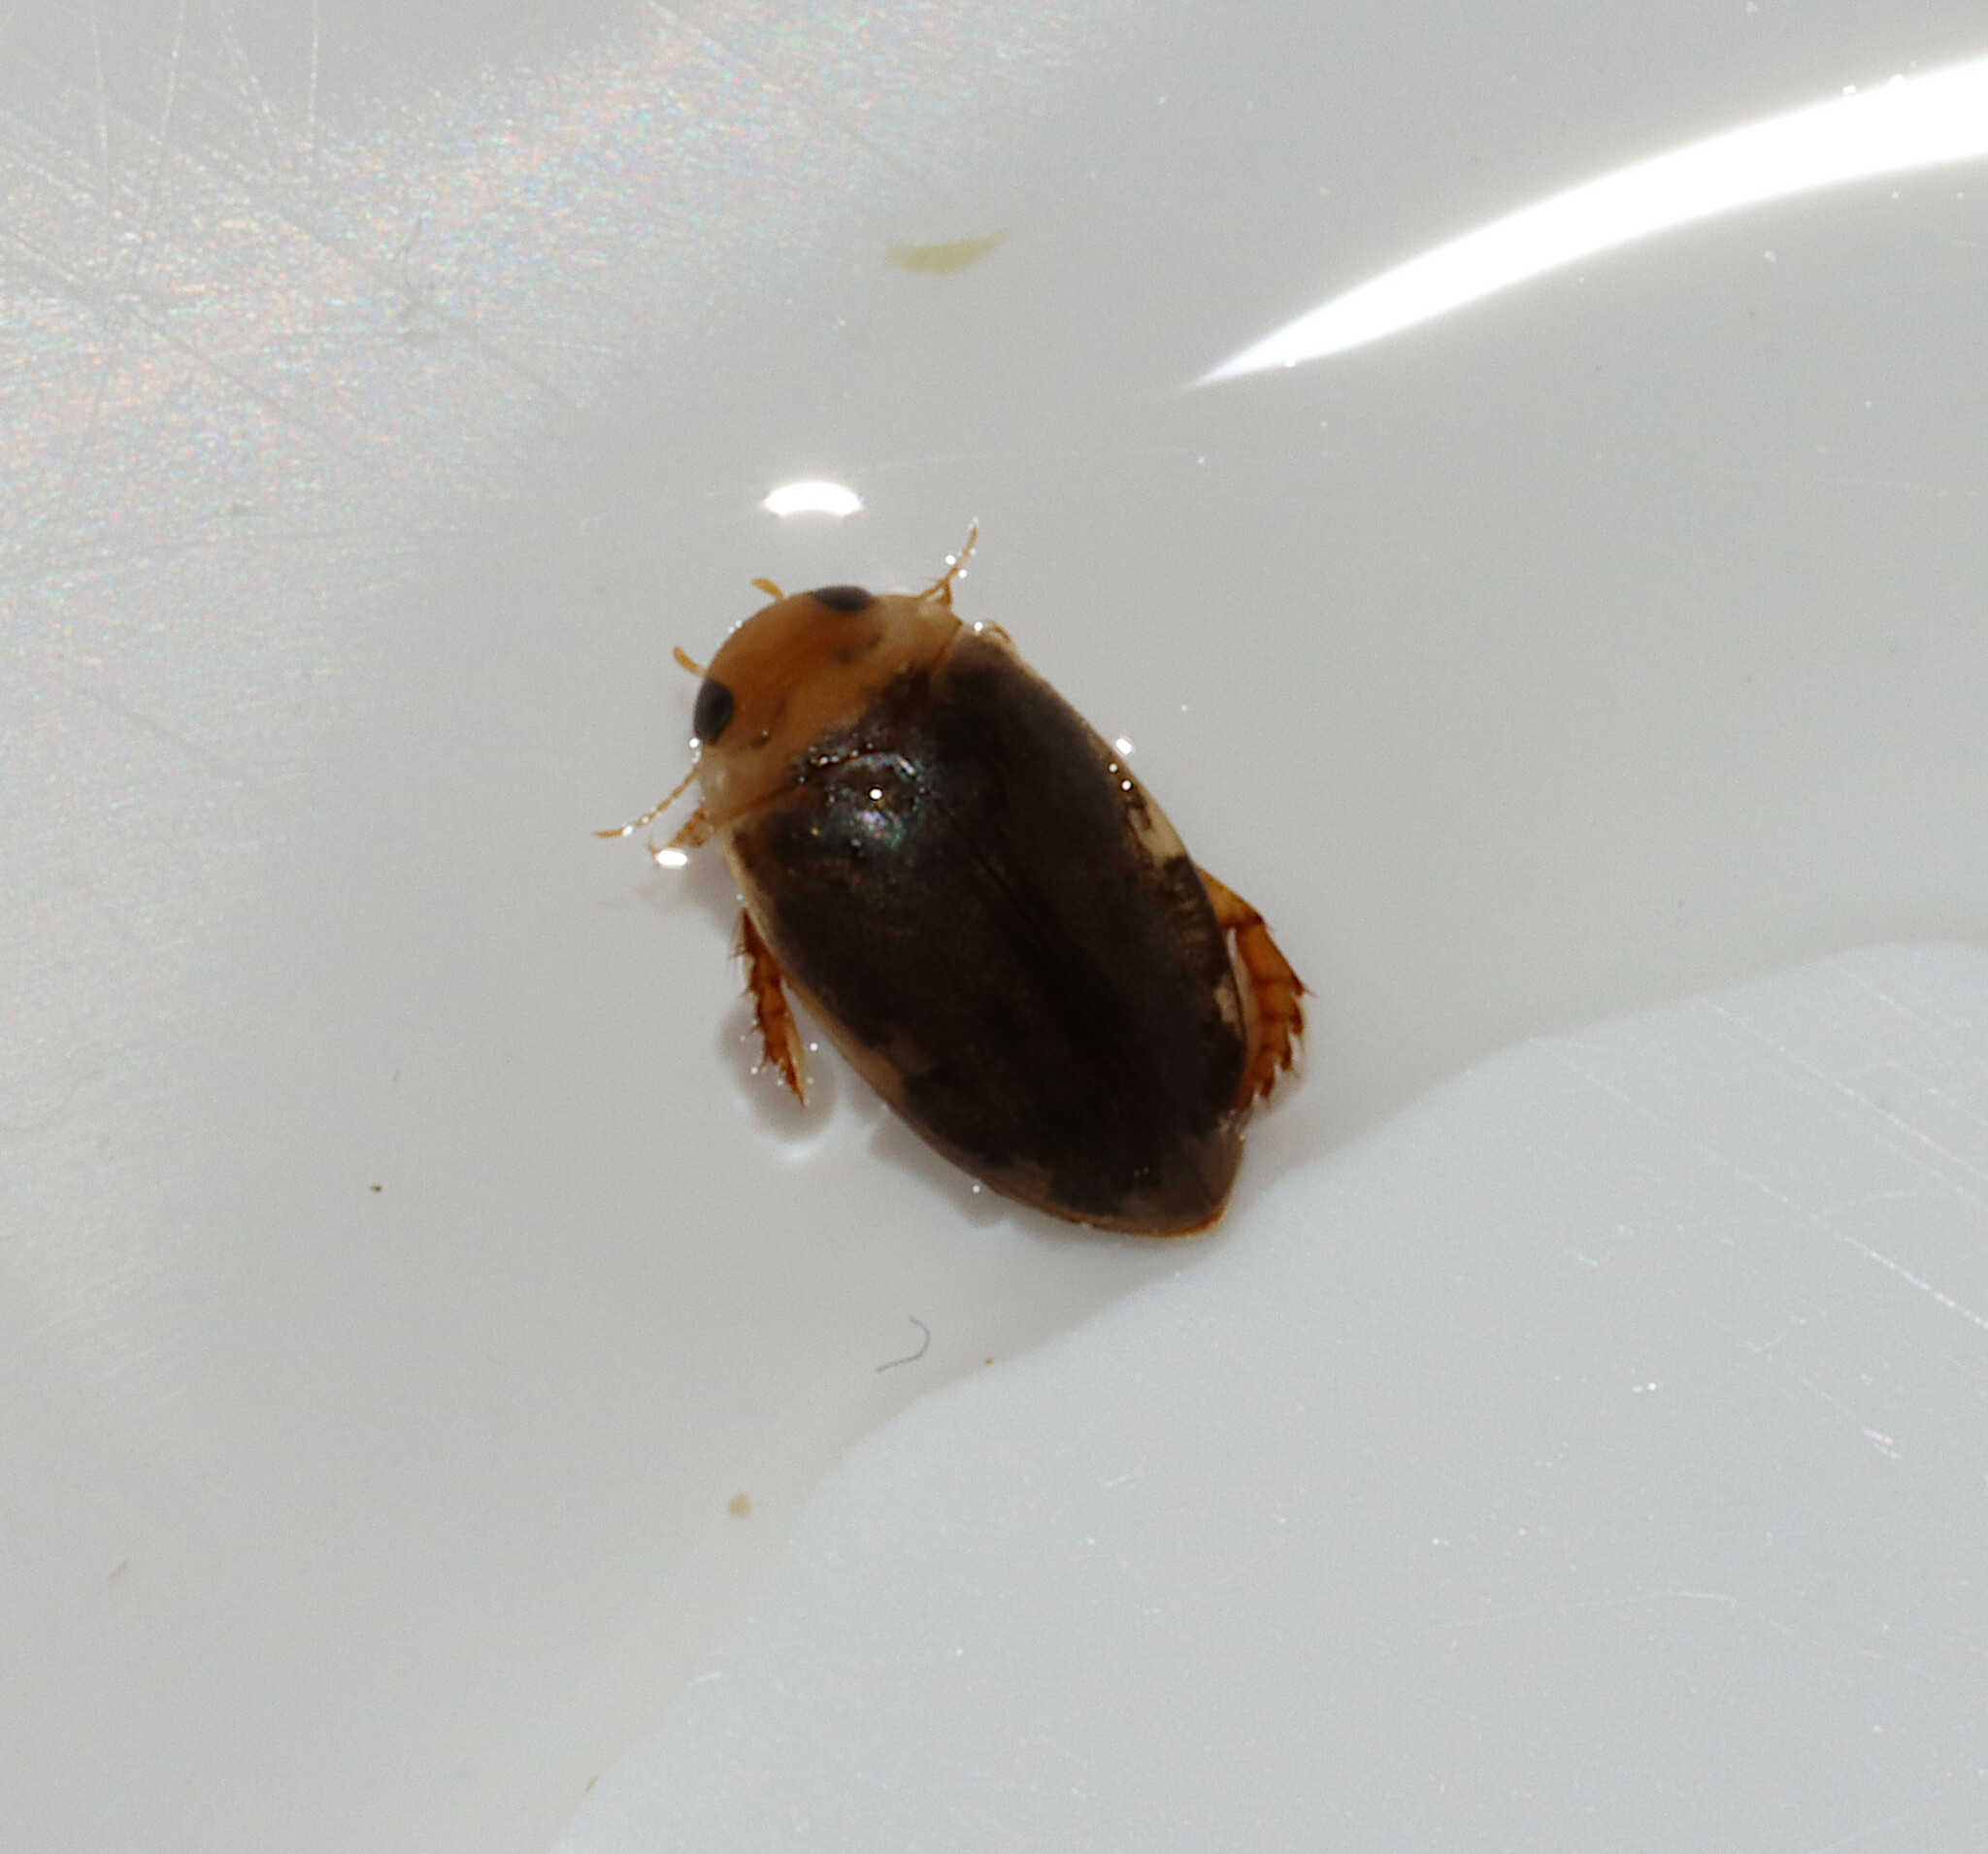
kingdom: Animalia
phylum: Arthropoda
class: Insecta
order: Coleoptera
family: Dytiscidae
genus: Laccophilus
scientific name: Laccophilus
